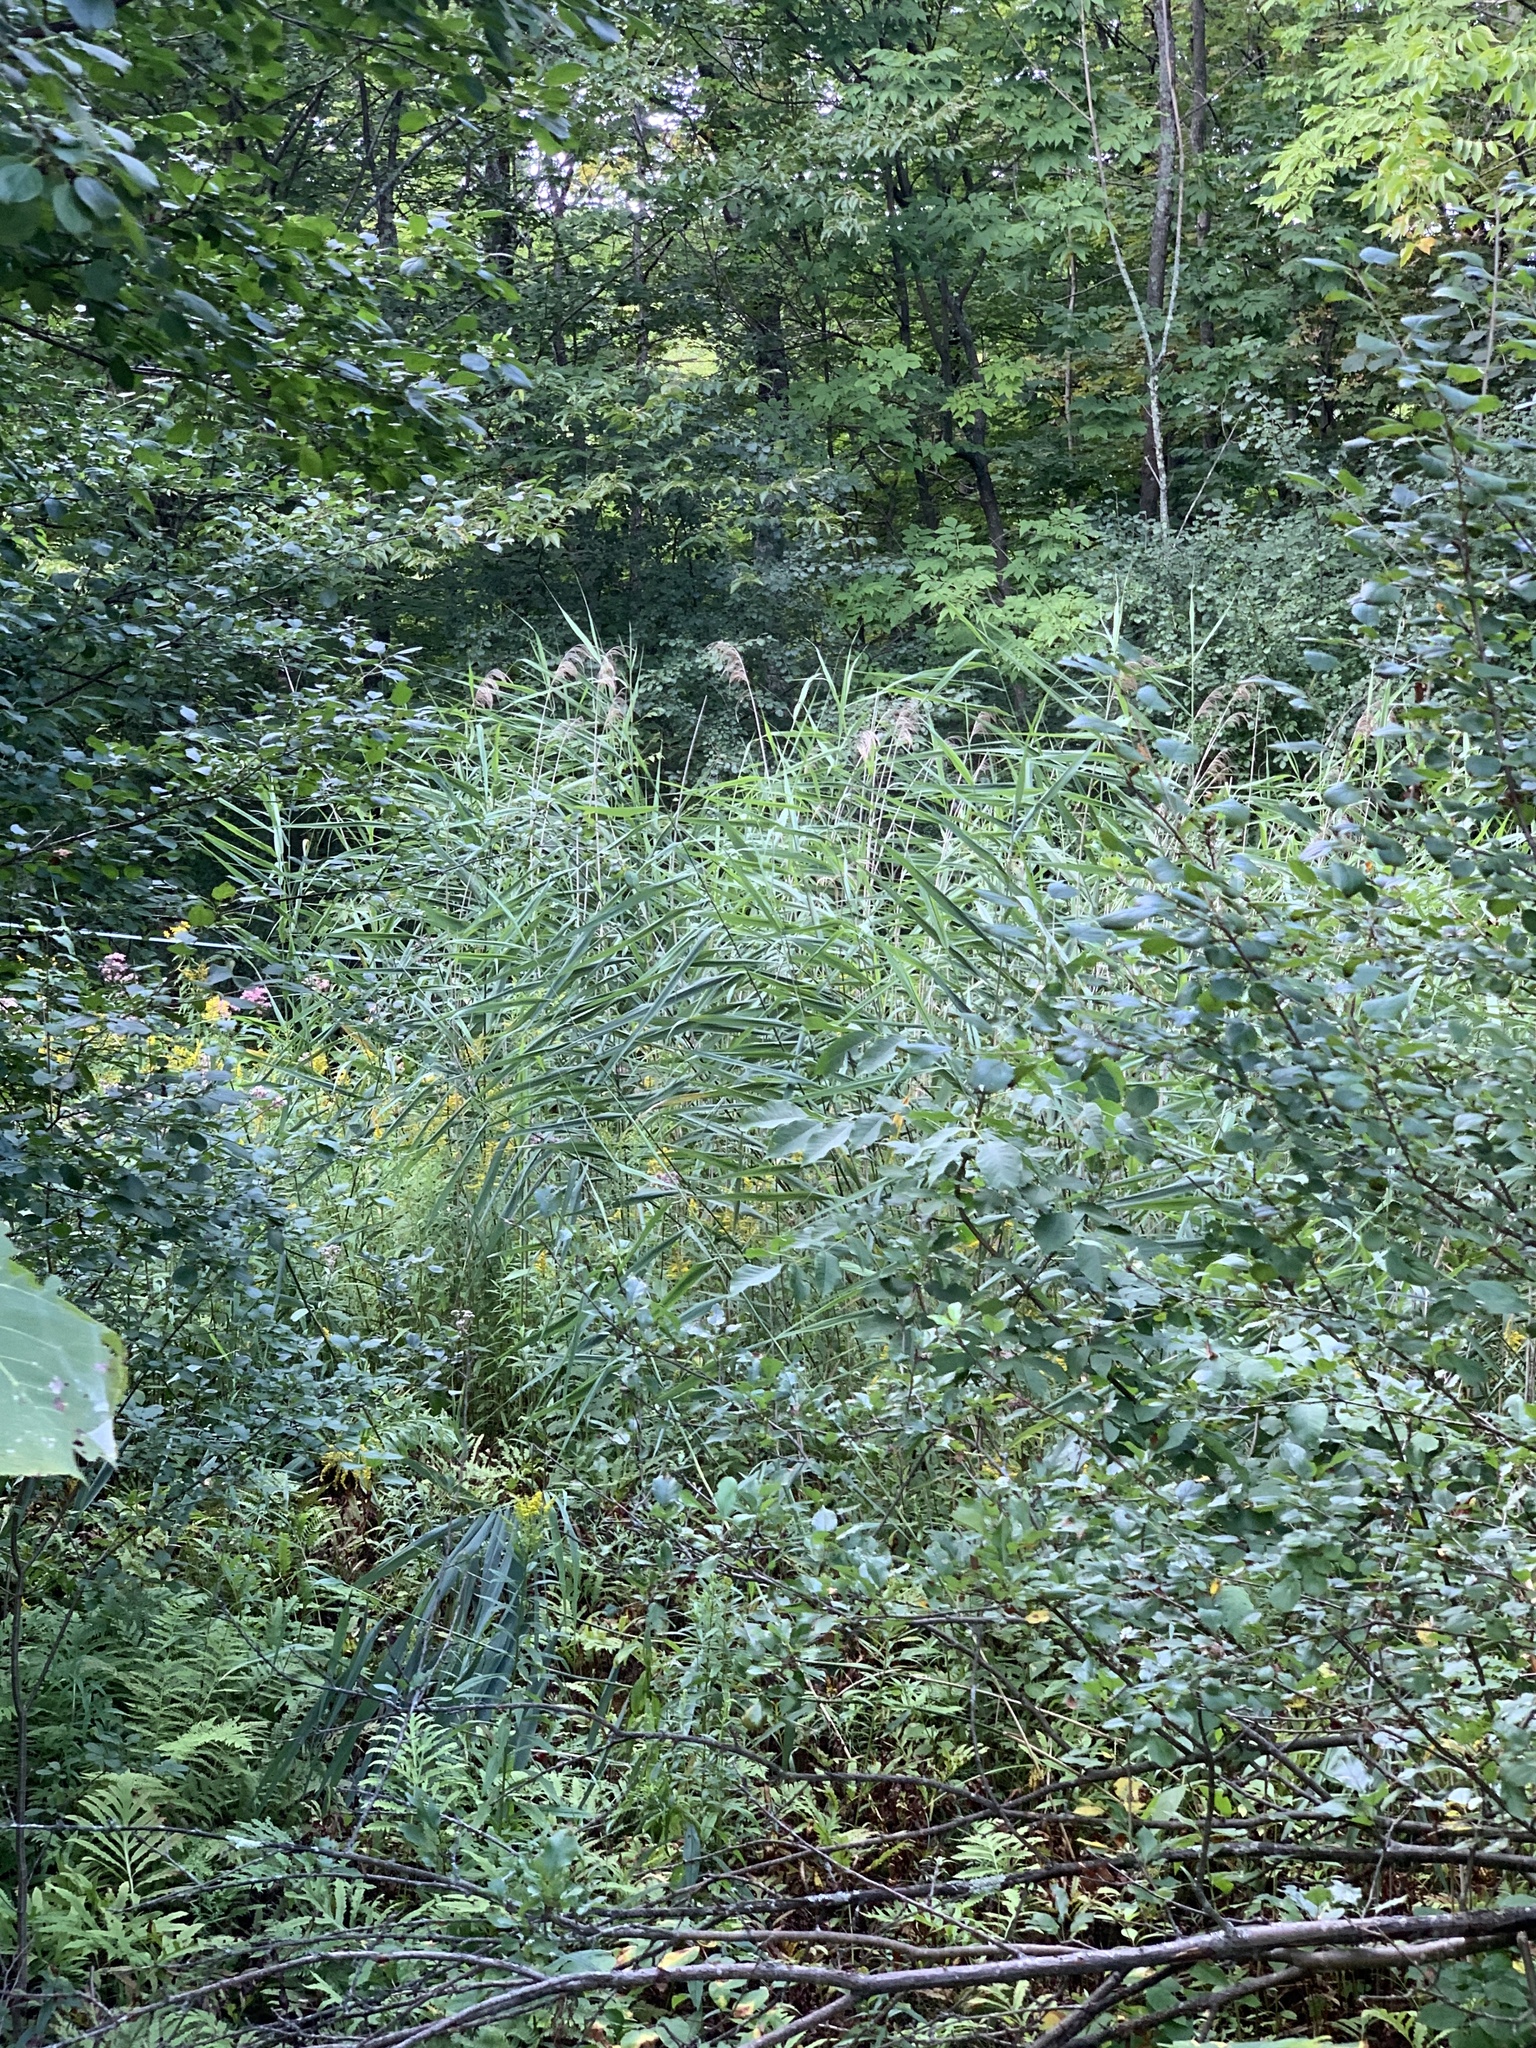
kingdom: Plantae
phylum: Tracheophyta
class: Liliopsida
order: Poales
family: Poaceae
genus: Phragmites
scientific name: Phragmites australis
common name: Common reed
